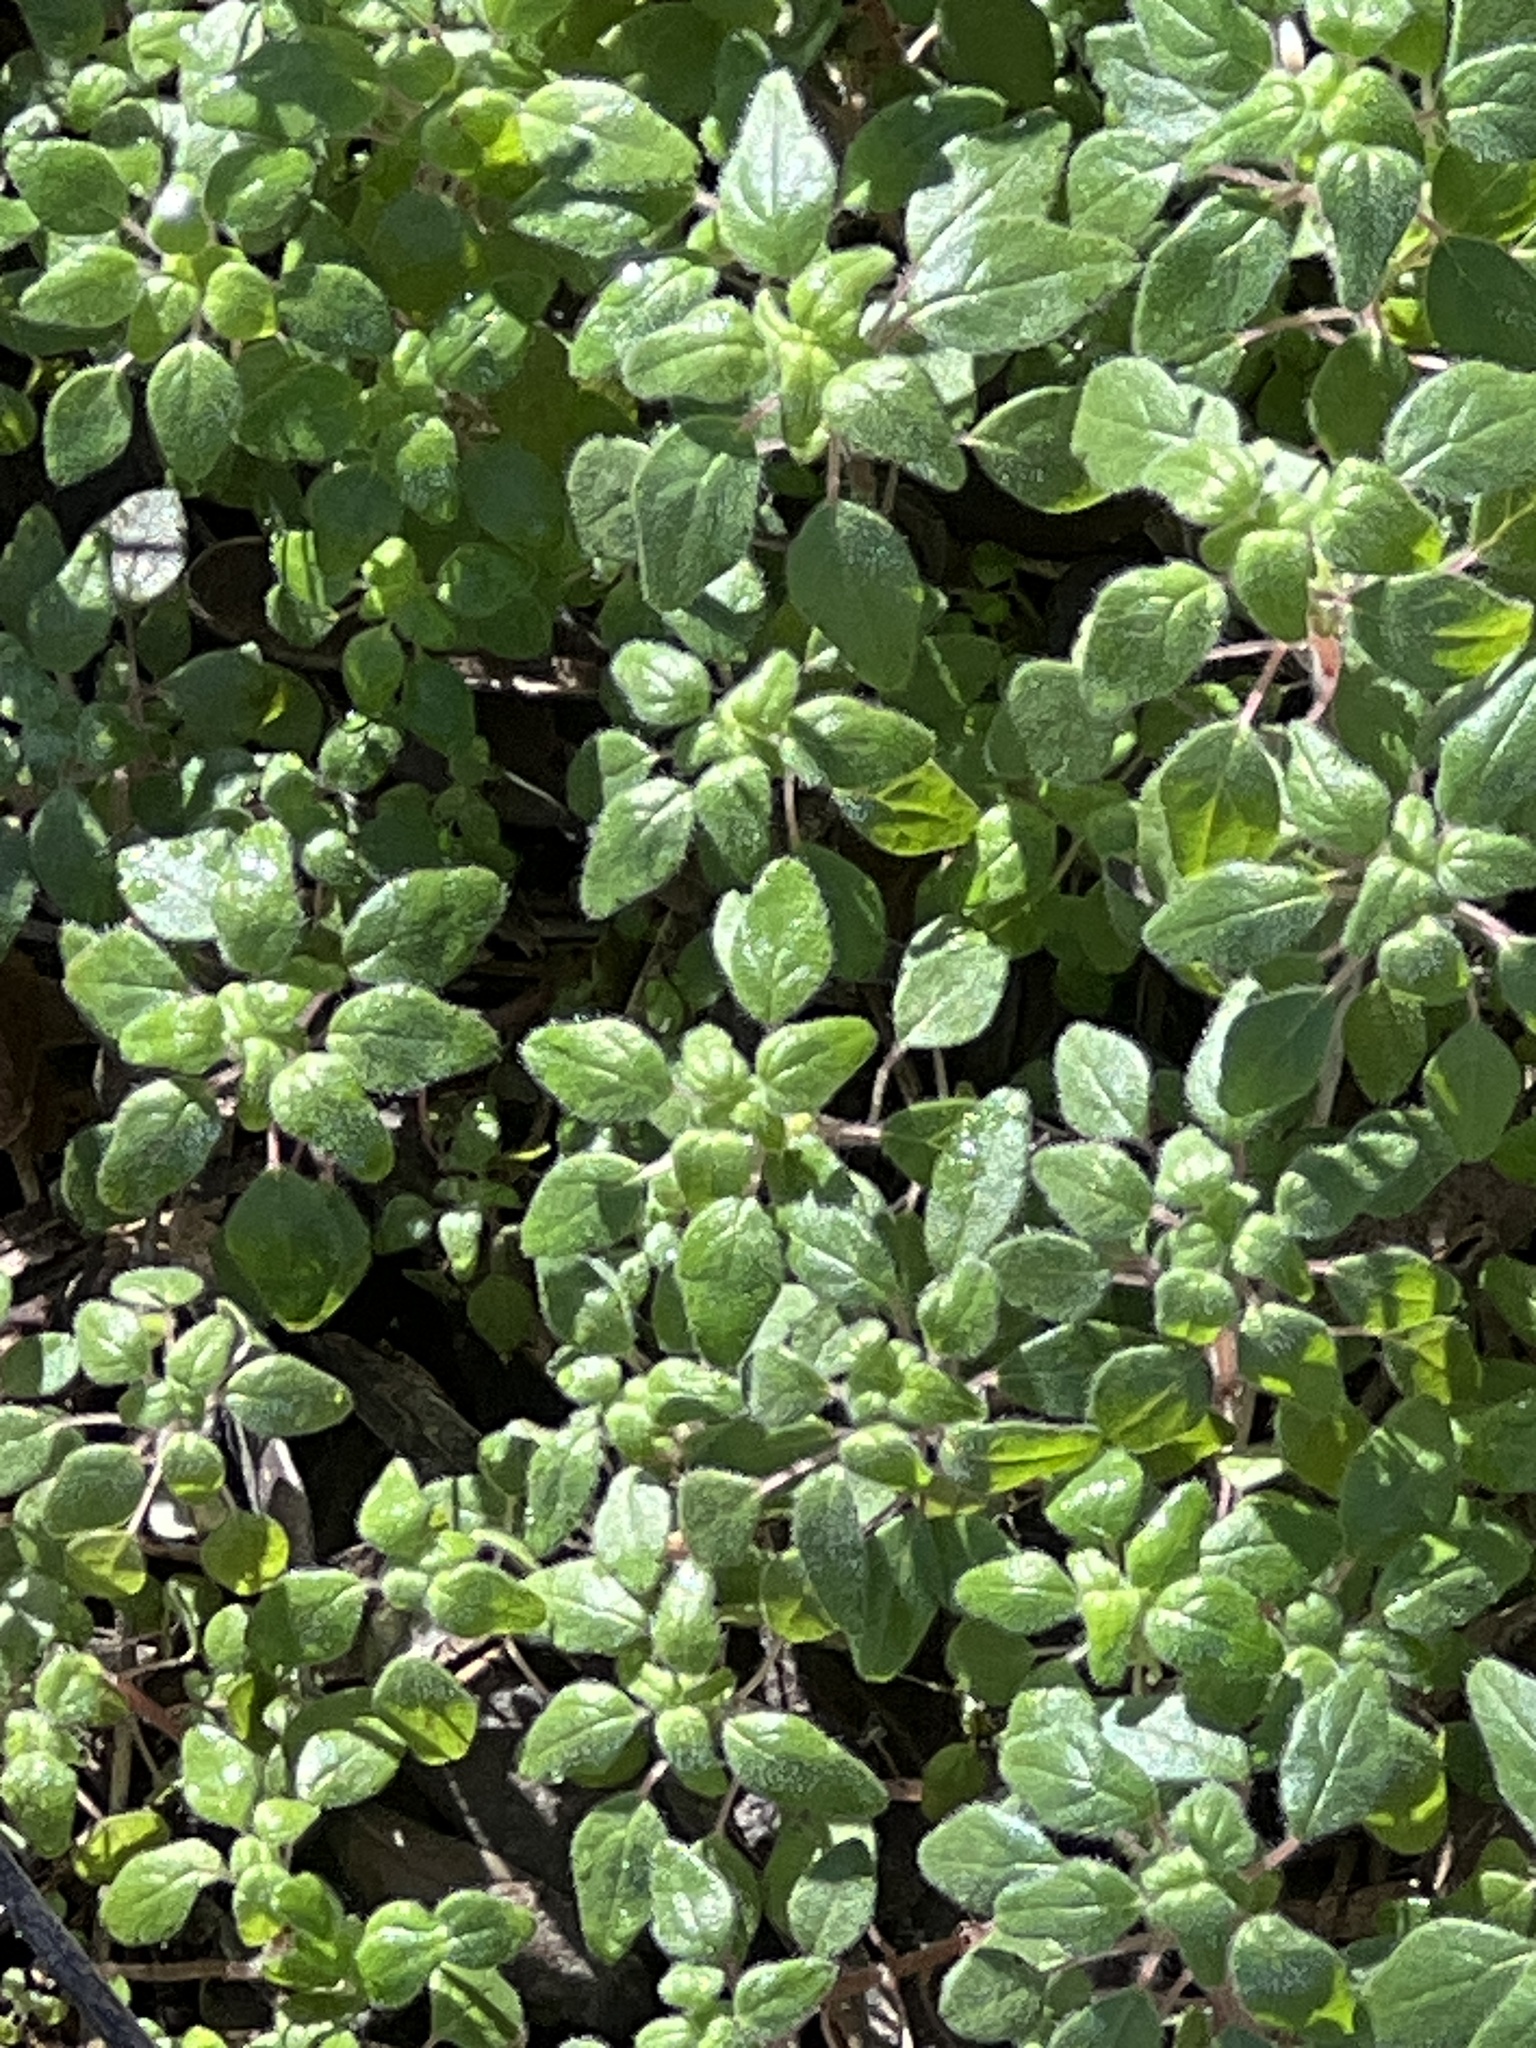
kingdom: Plantae
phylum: Tracheophyta
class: Magnoliopsida
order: Rosales
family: Urticaceae
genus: Parietaria
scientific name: Parietaria pensylvanica
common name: Pennsylvania pellitory
